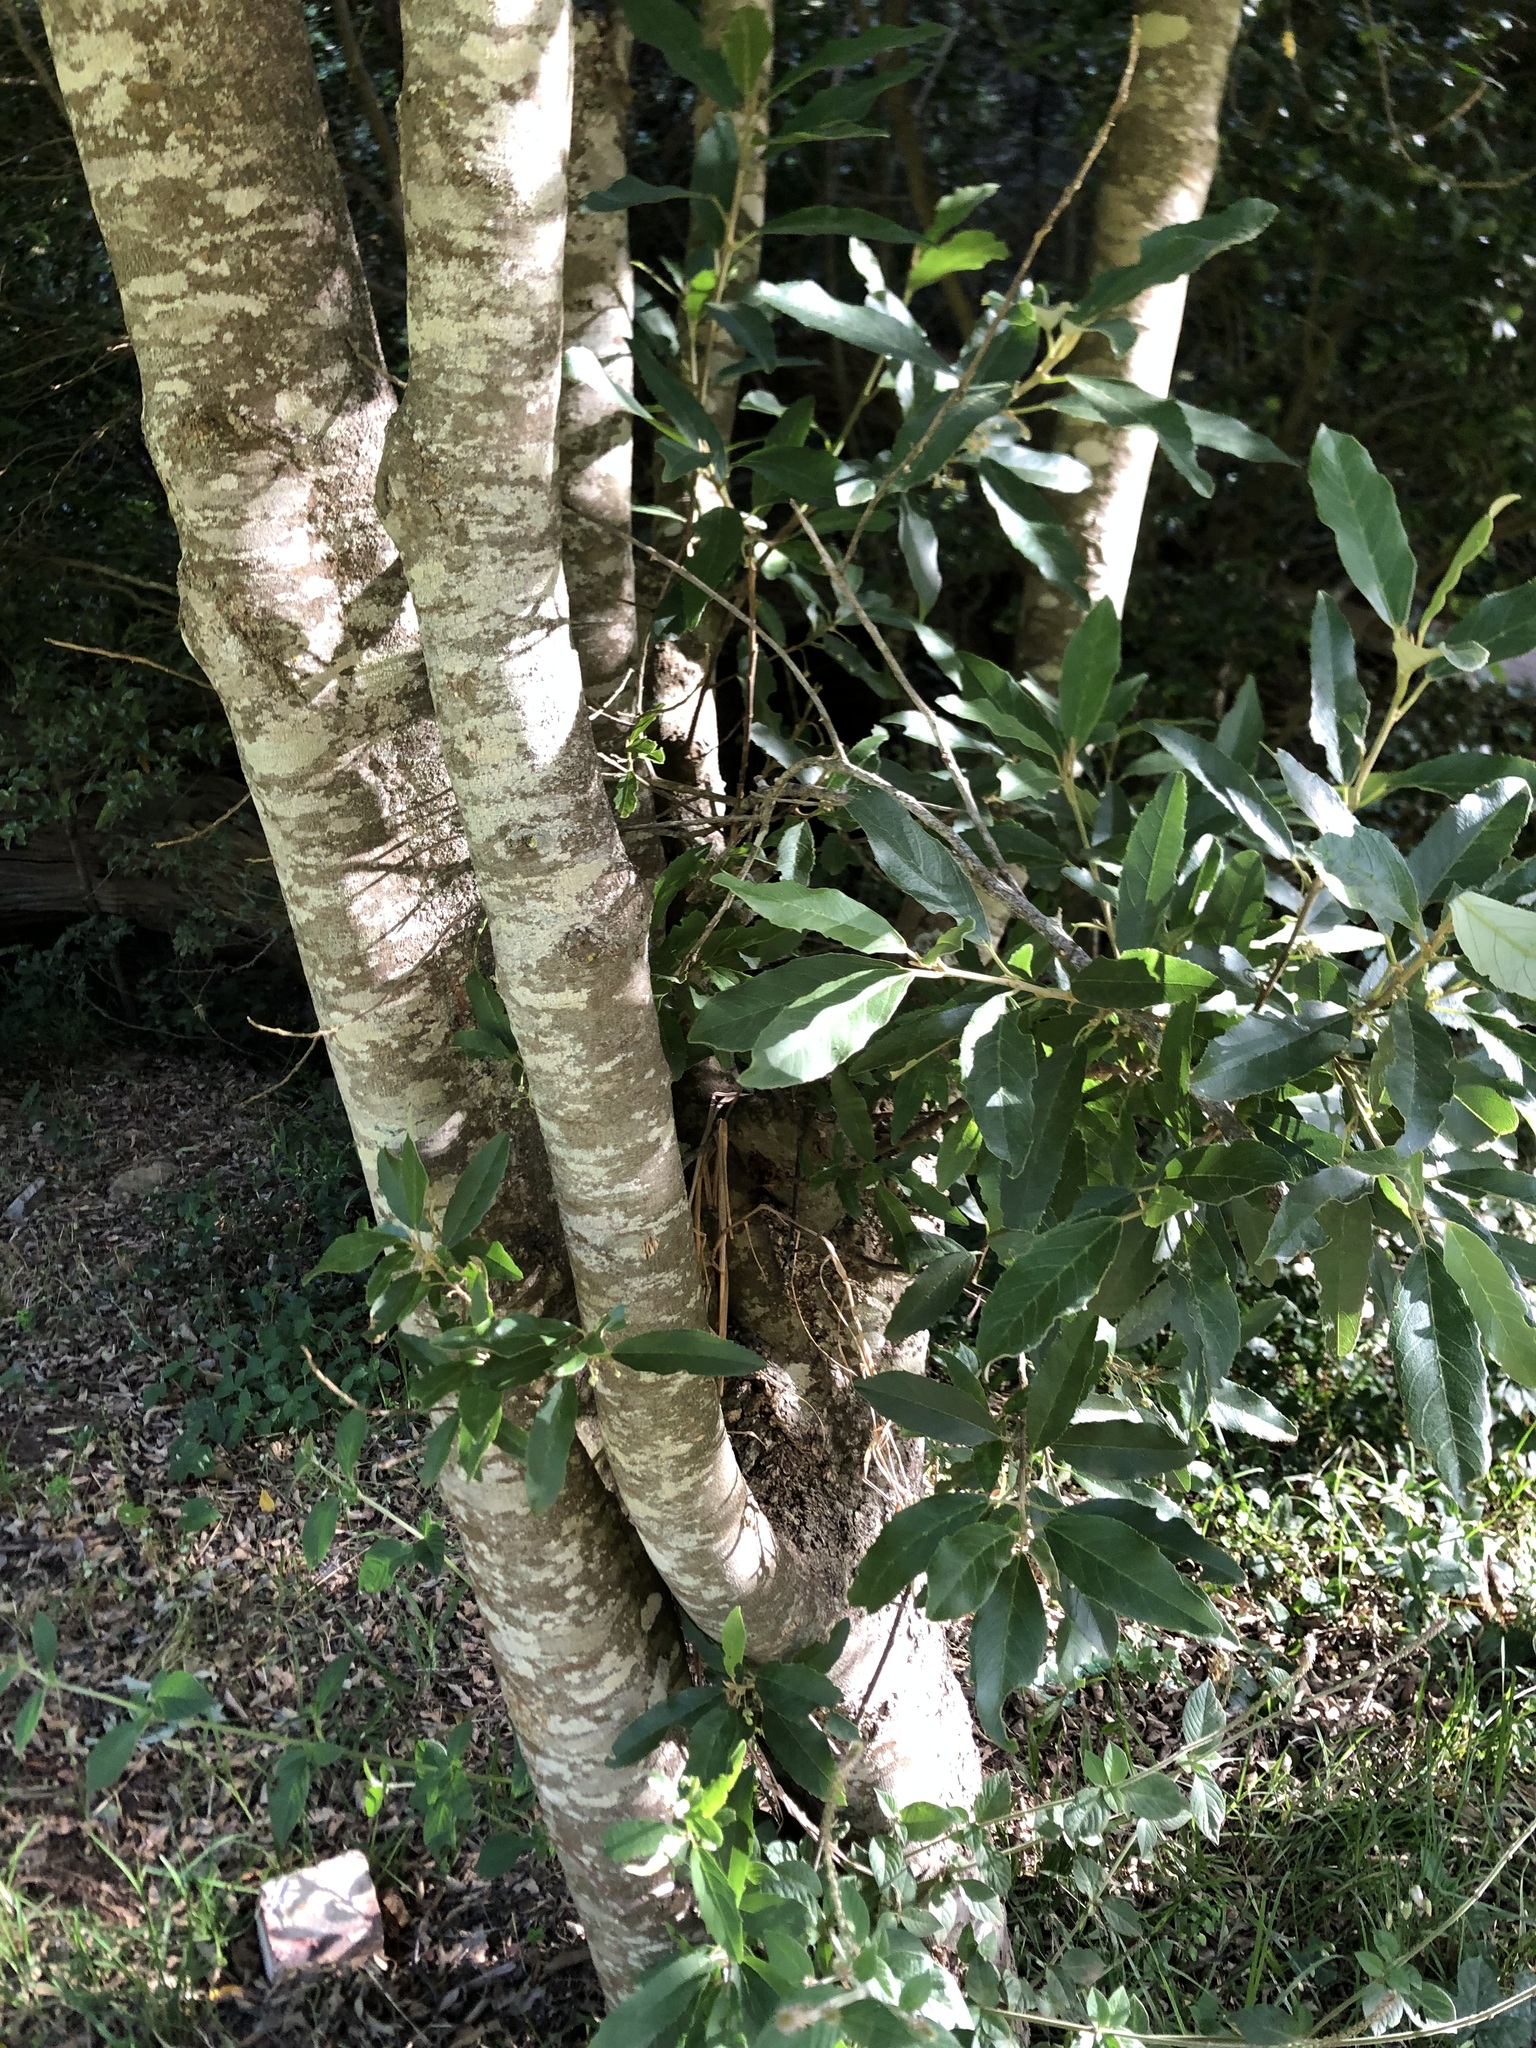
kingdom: Plantae
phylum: Tracheophyta
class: Magnoliopsida
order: Malpighiales
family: Achariaceae
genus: Kiggelaria
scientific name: Kiggelaria africana
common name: Wild peach
